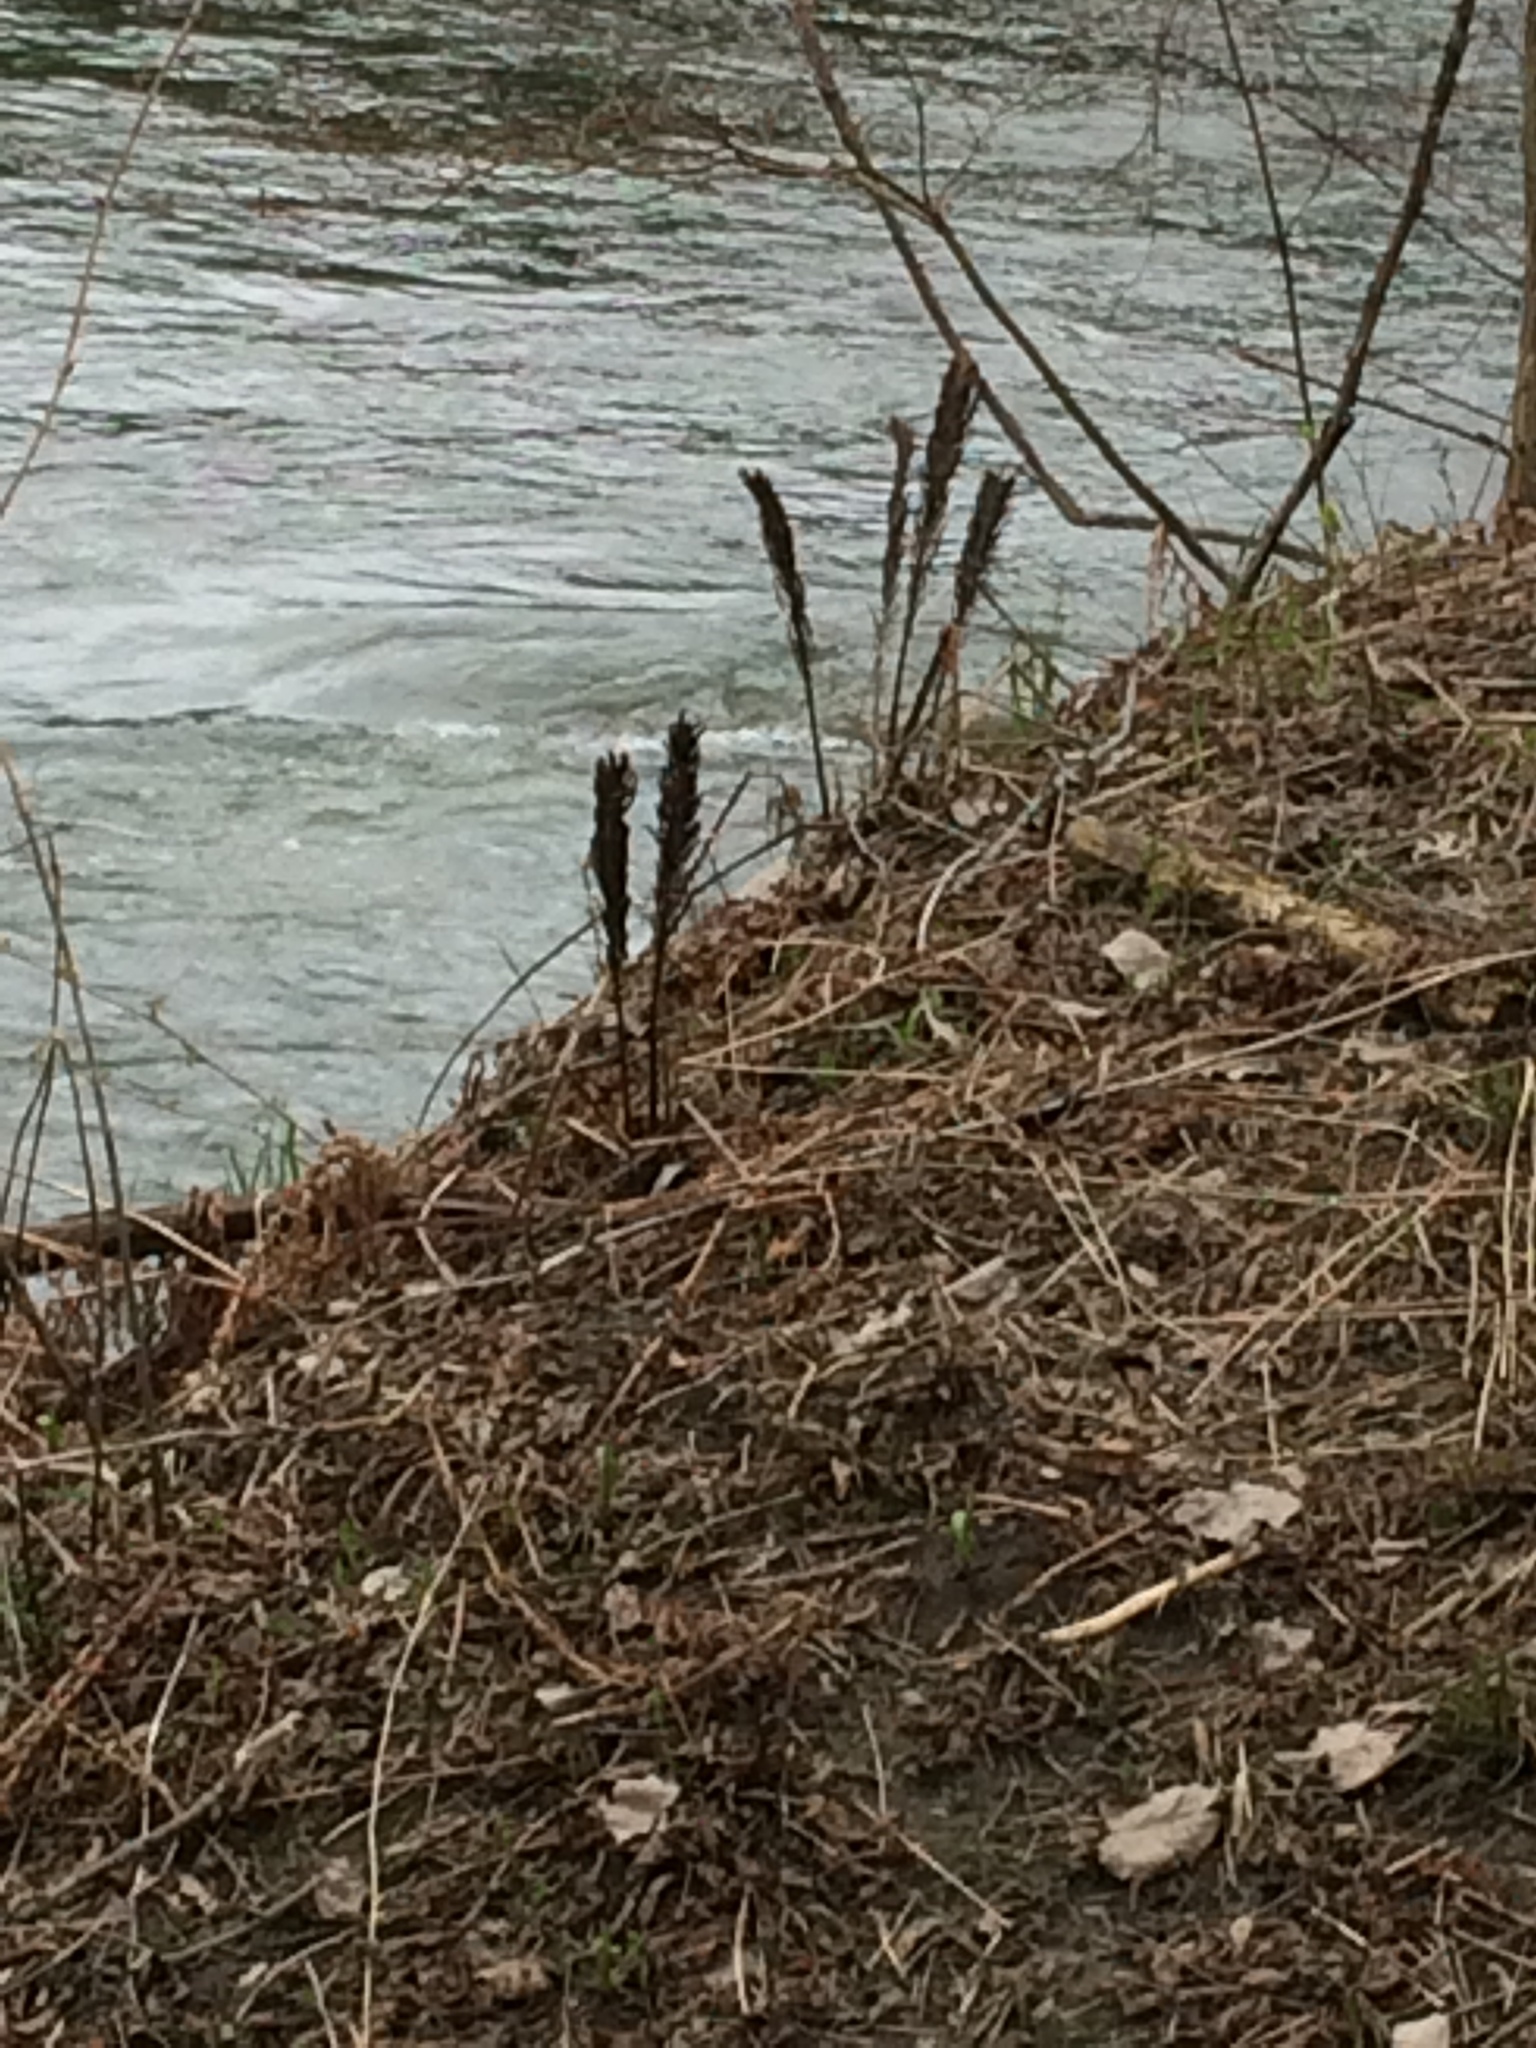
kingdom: Plantae
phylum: Tracheophyta
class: Polypodiopsida
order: Polypodiales
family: Onocleaceae
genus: Matteuccia
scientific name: Matteuccia struthiopteris
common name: Ostrich fern
